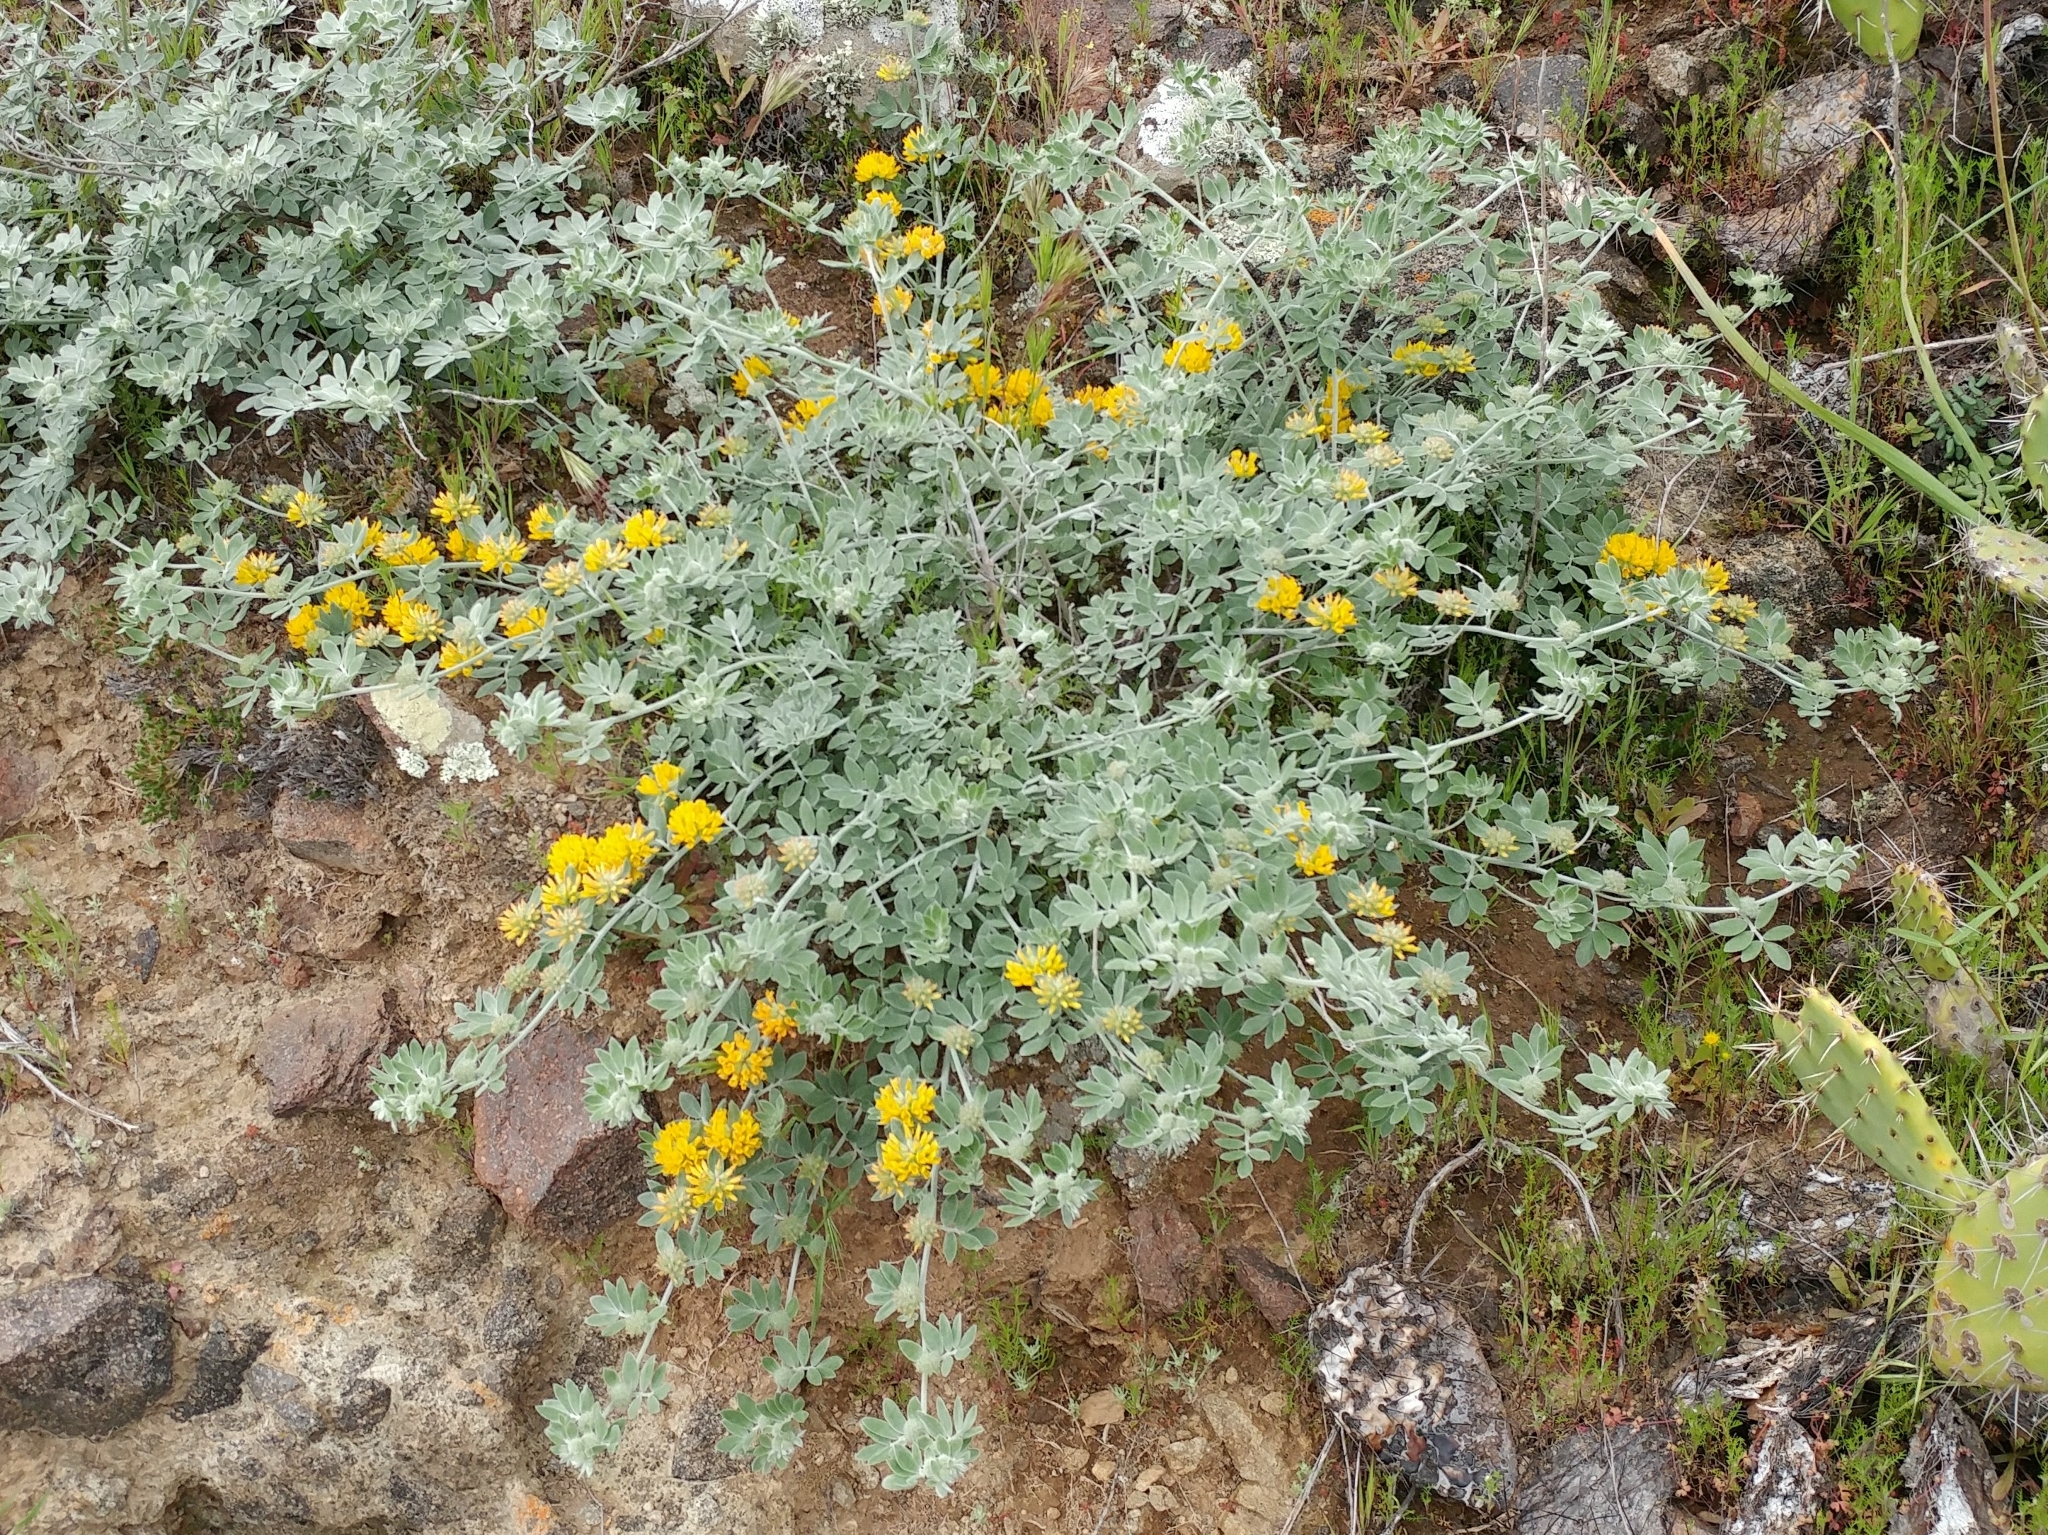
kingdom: Plantae
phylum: Tracheophyta
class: Magnoliopsida
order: Fabales
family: Fabaceae
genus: Acmispon
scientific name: Acmispon argophyllus
